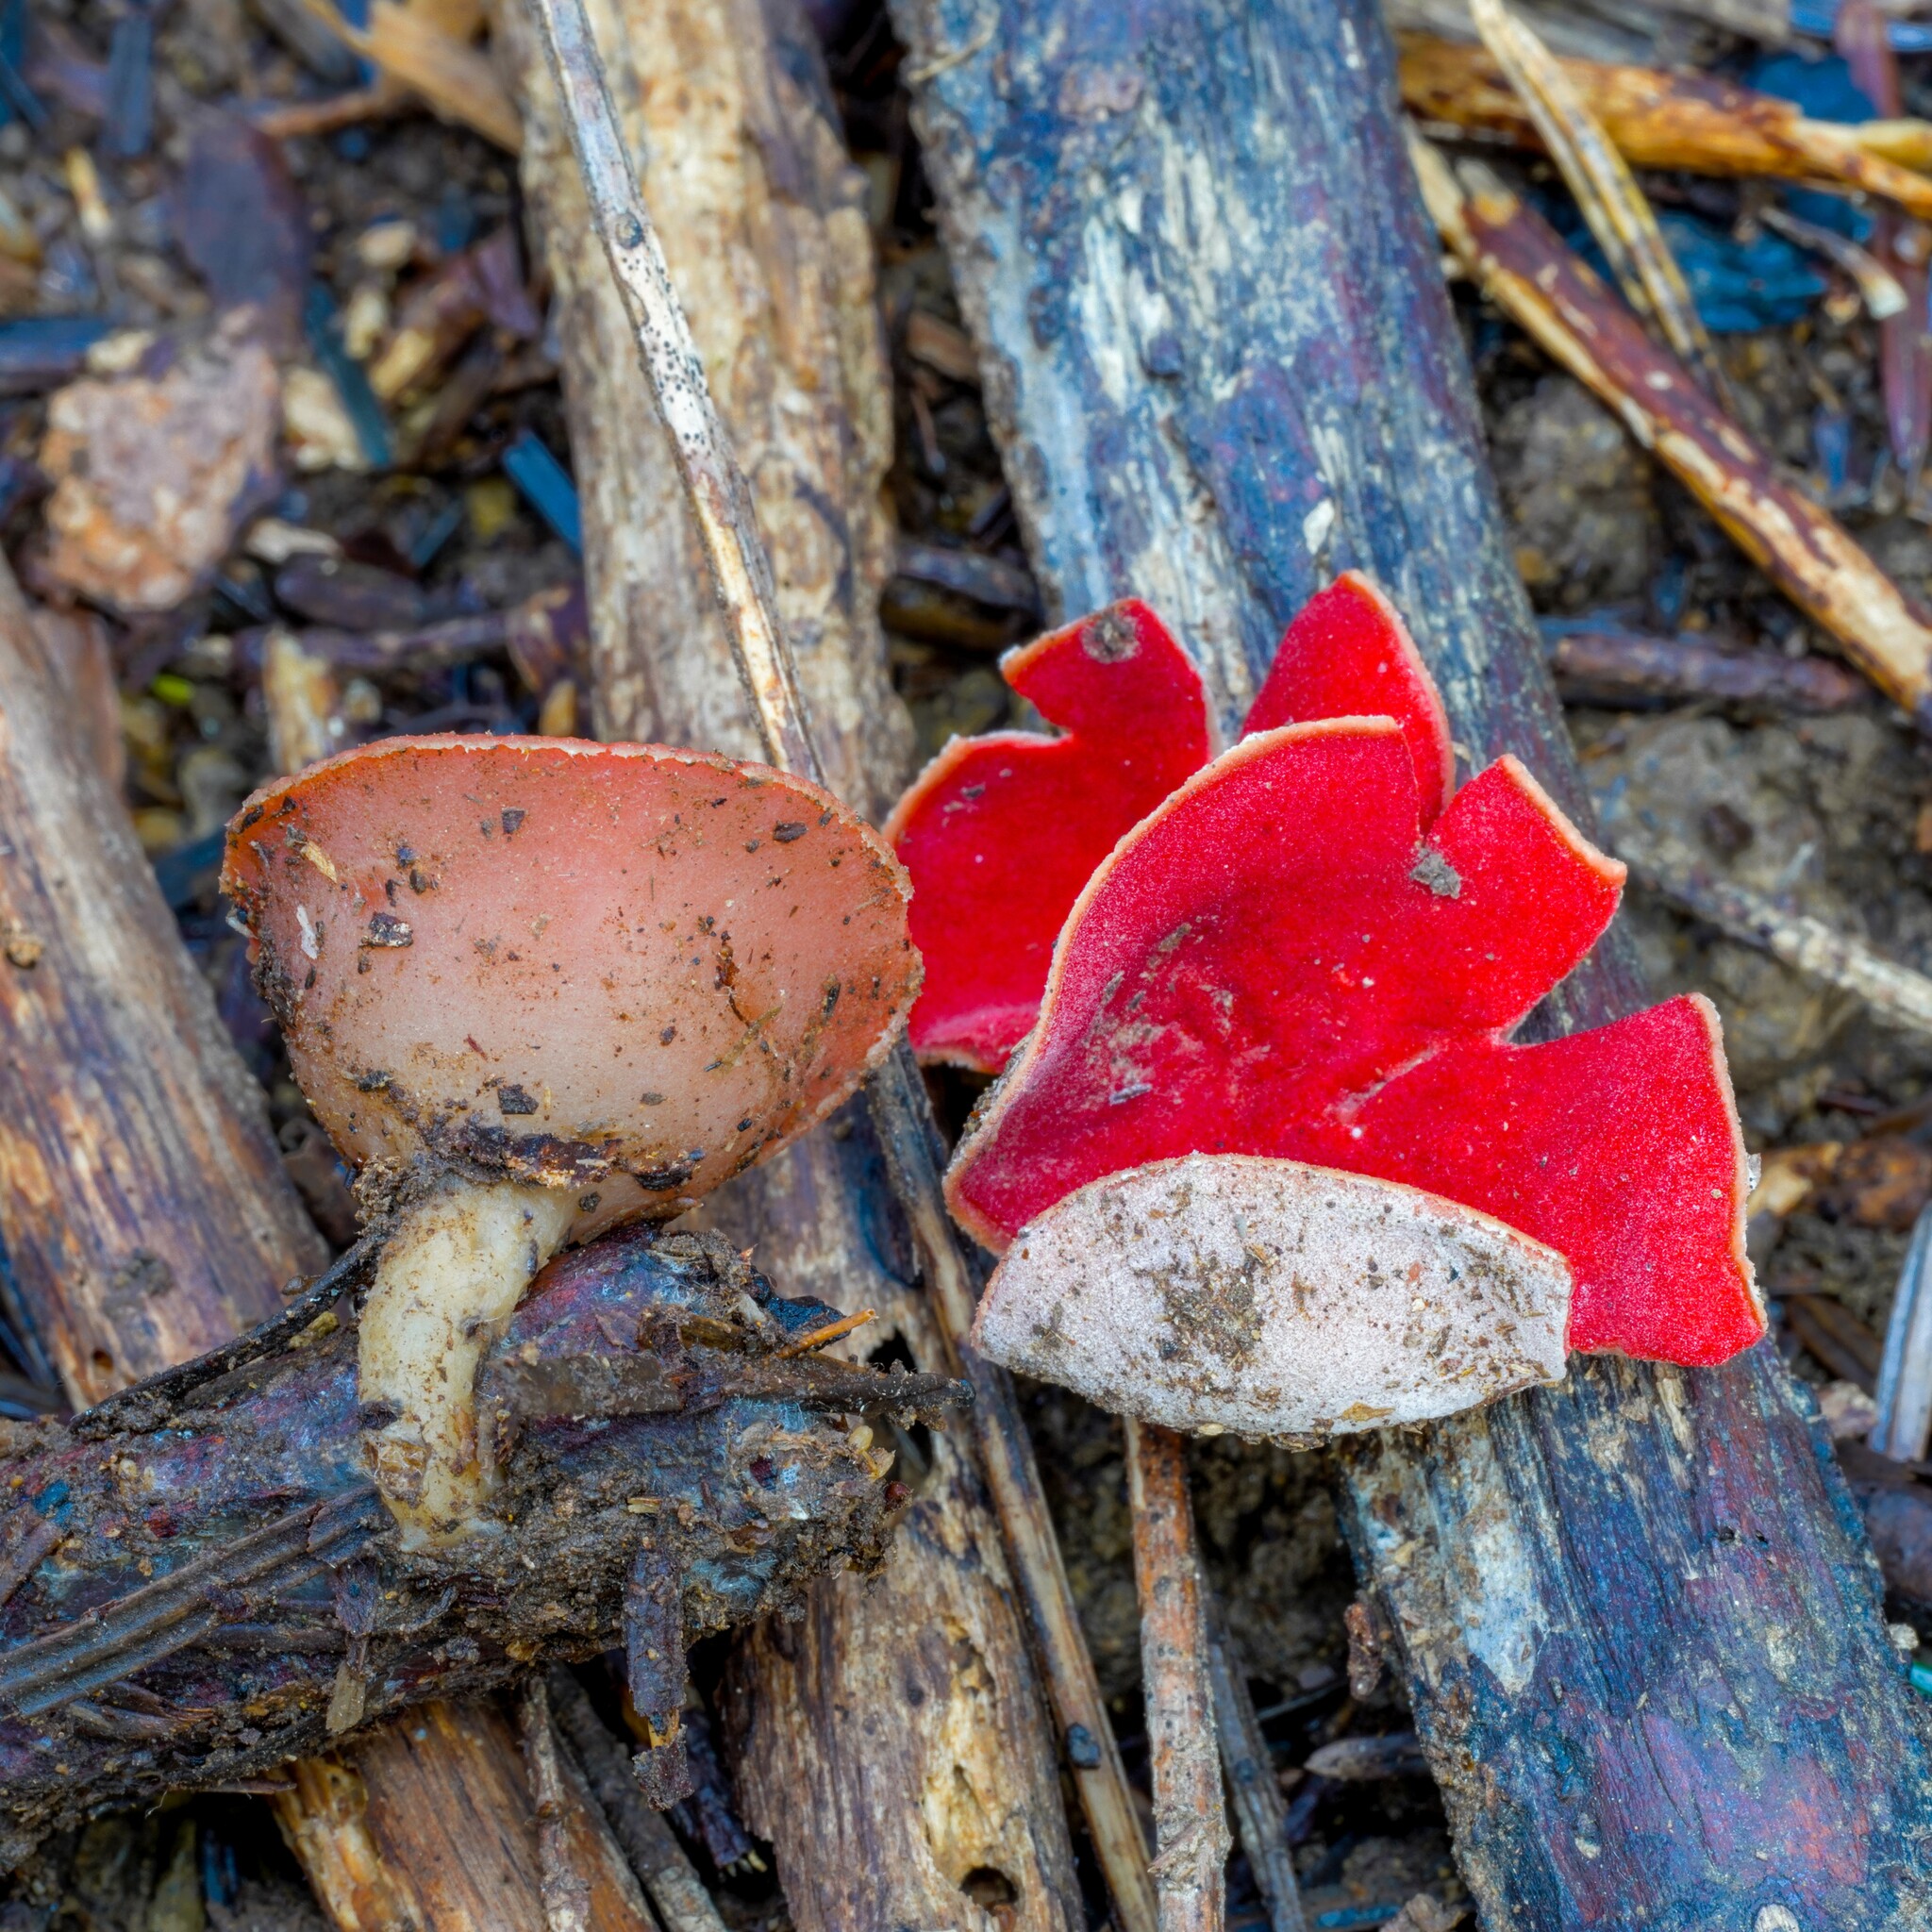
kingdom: Fungi
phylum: Ascomycota
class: Pezizomycetes
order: Pezizales
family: Sarcoscyphaceae
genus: Sarcoscypha
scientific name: Sarcoscypha austriaca
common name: Scarlet elfcup
